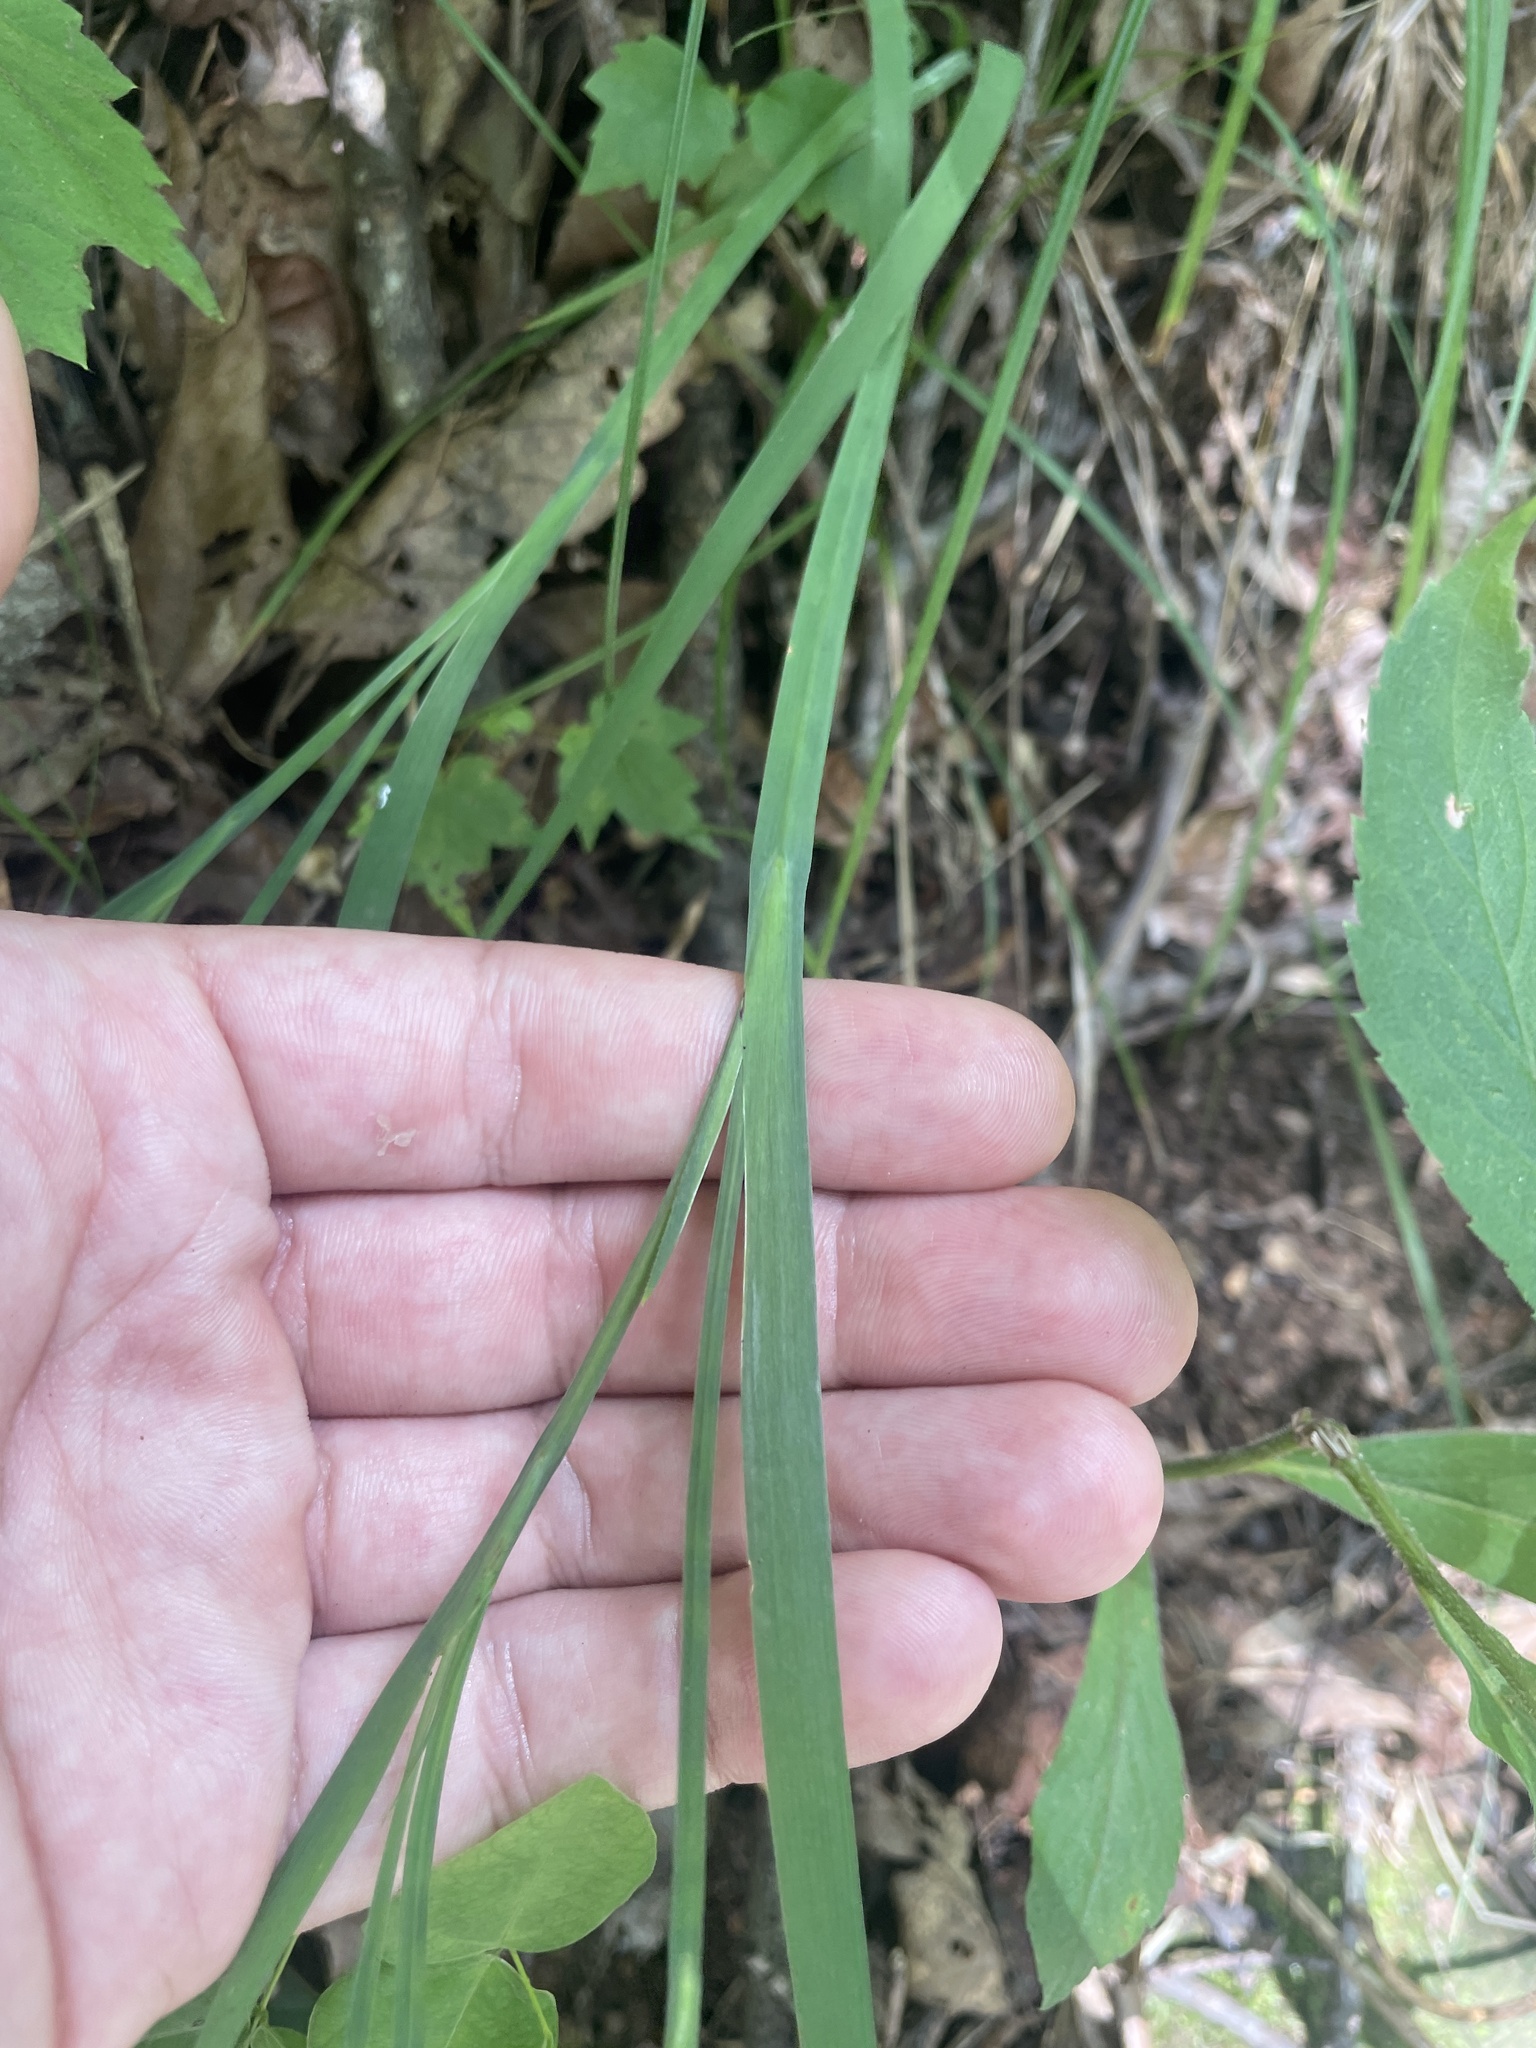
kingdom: Plantae
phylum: Tracheophyta
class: Liliopsida
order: Asparagales
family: Iridaceae
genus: Sisyrinchium
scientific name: Sisyrinchium dichotomum
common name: White irisette
